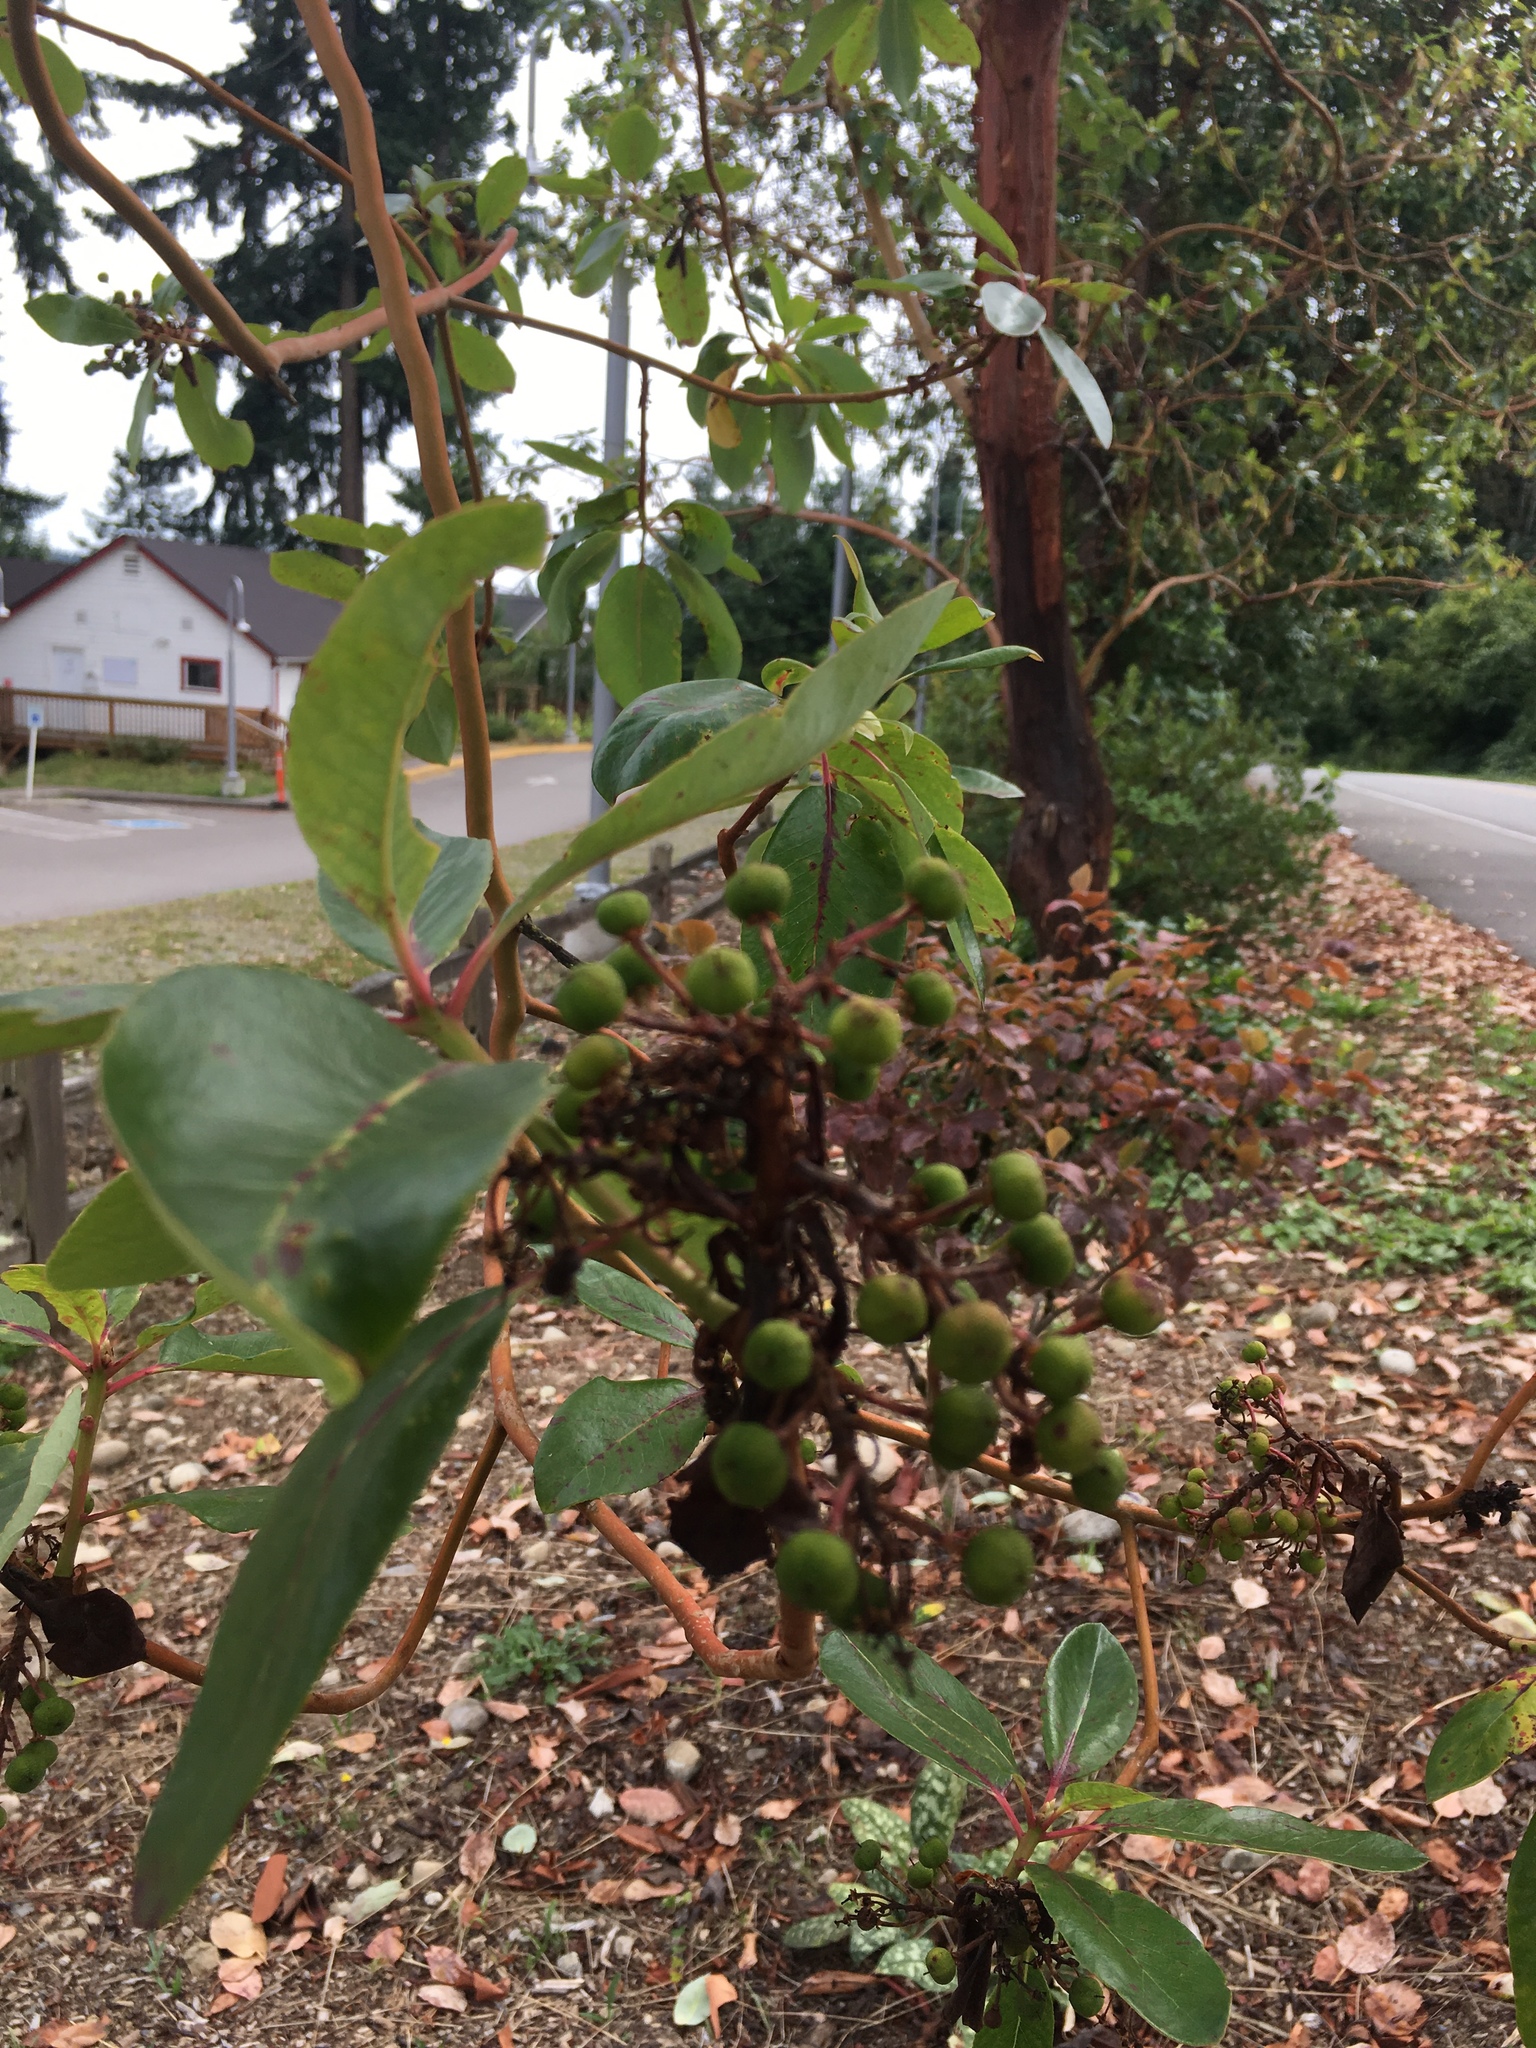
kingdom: Plantae
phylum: Tracheophyta
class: Magnoliopsida
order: Ericales
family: Ericaceae
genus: Arbutus
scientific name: Arbutus menziesii
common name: Pacific madrone
